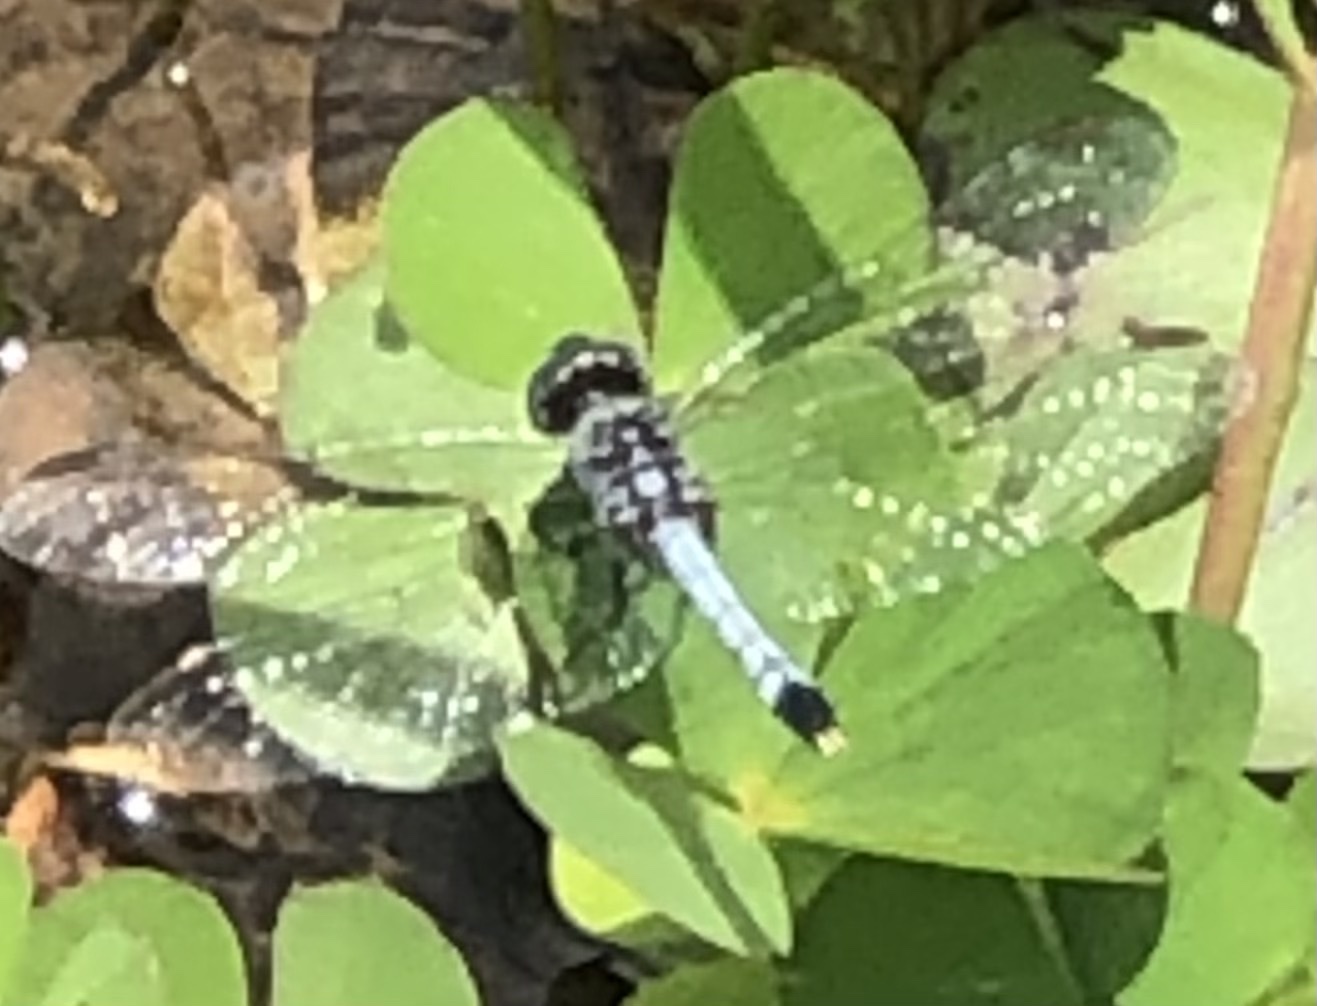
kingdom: Animalia
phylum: Arthropoda
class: Insecta
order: Odonata
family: Libellulidae
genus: Erythrodiplax
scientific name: Erythrodiplax minuscula
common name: Little blue dragonlet
